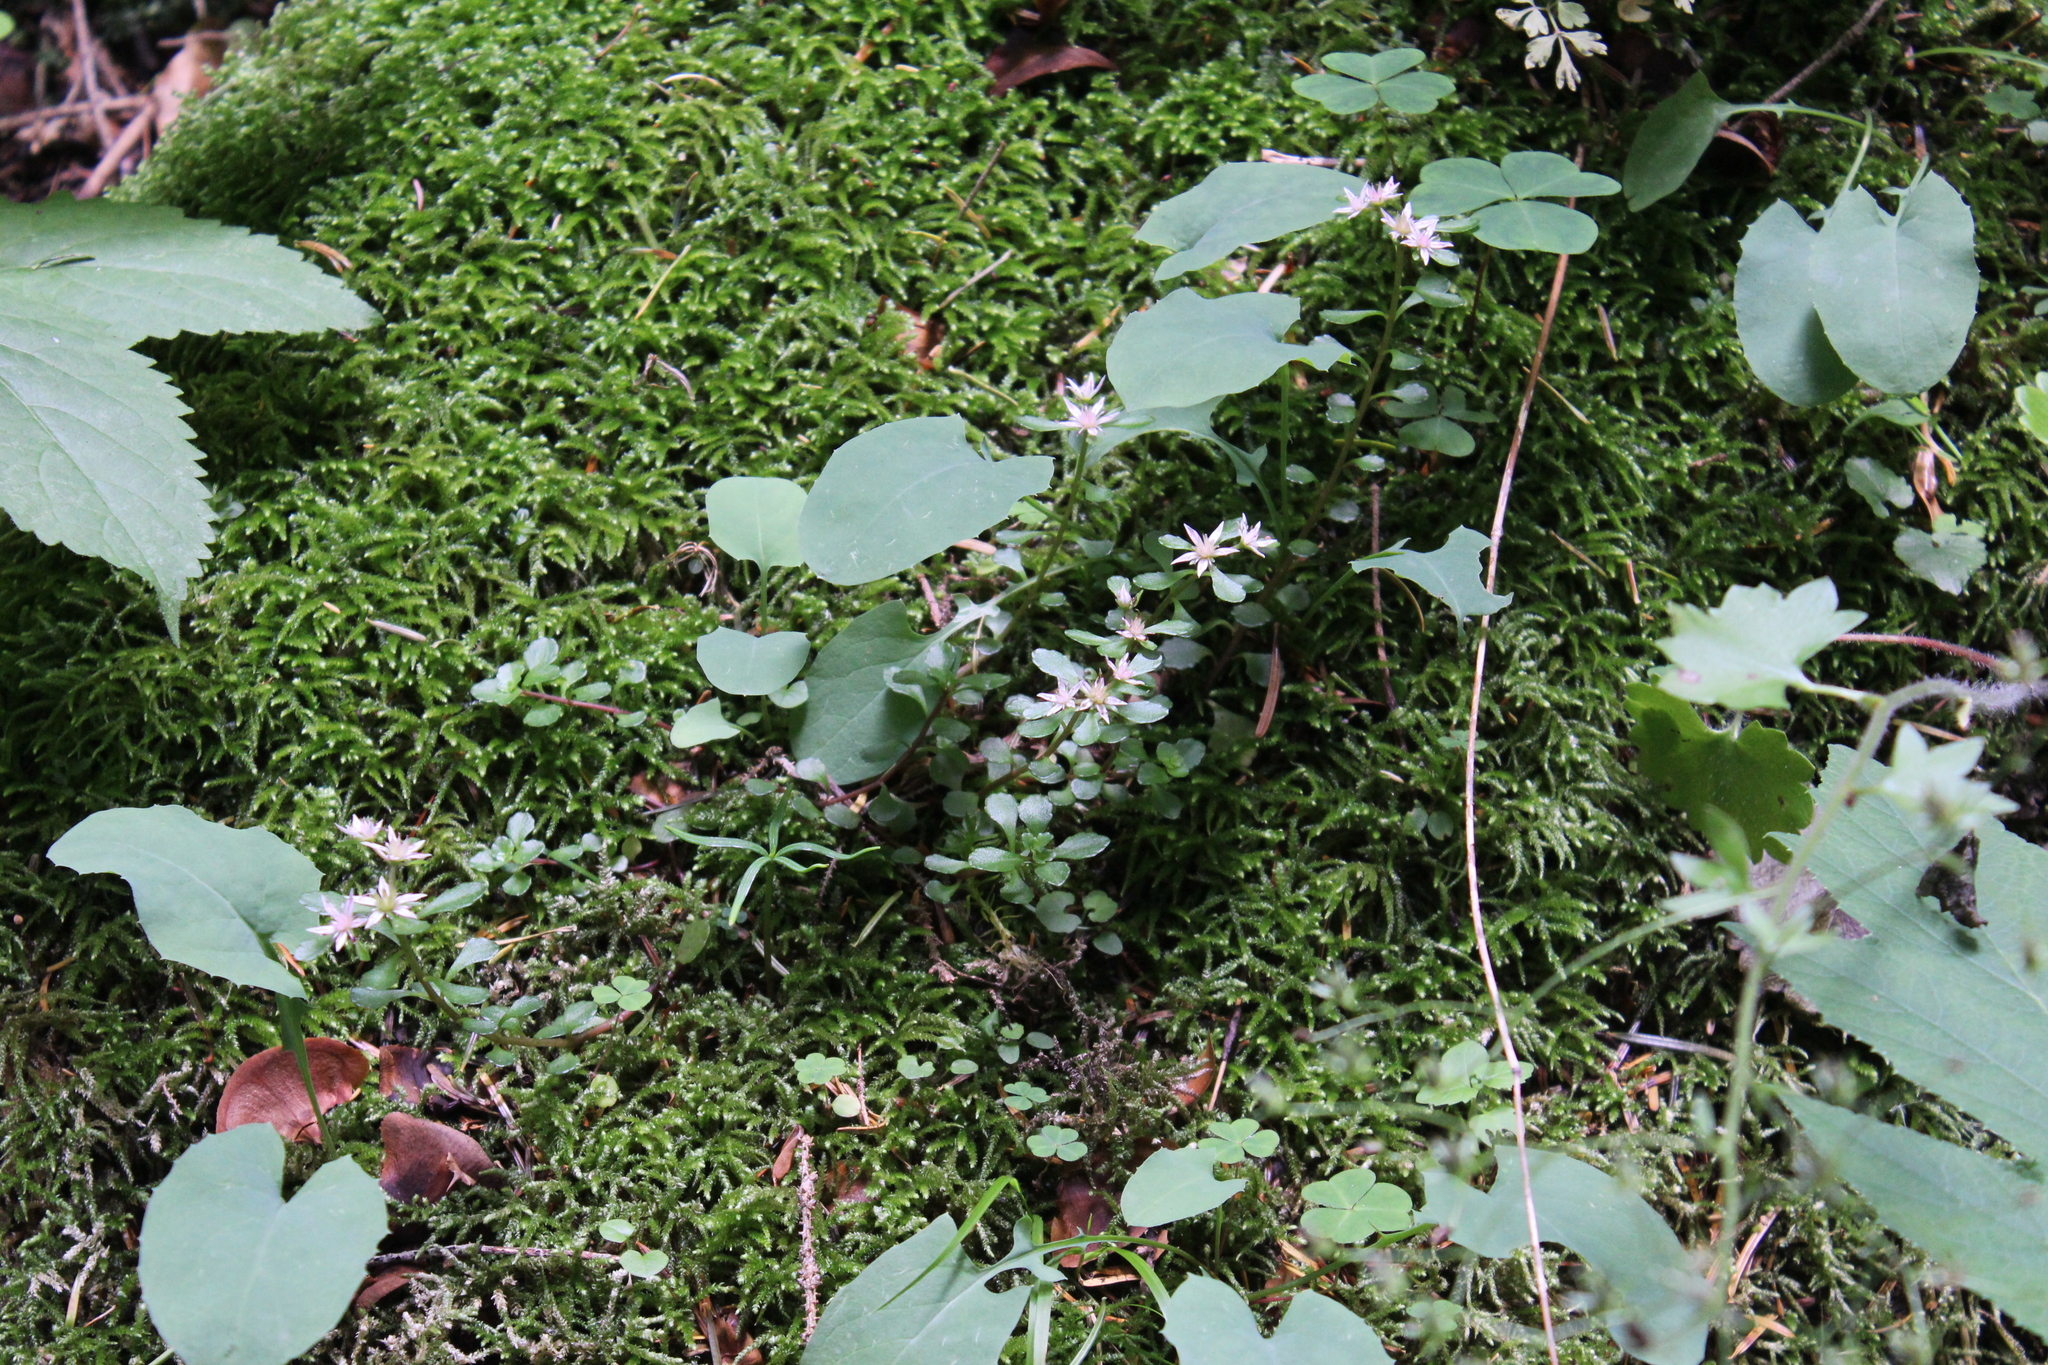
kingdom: Plantae
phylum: Tracheophyta
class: Magnoliopsida
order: Saxifragales
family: Crassulaceae
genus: Phedimus
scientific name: Phedimus stolonifer
